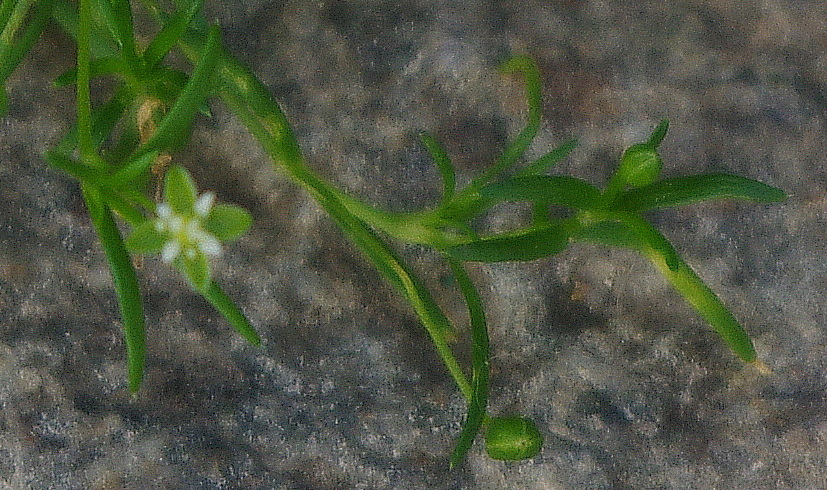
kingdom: Plantae
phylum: Tracheophyta
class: Magnoliopsida
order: Caryophyllales
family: Caryophyllaceae
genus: Sagina
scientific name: Sagina procumbens
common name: Procumbent pearlwort
